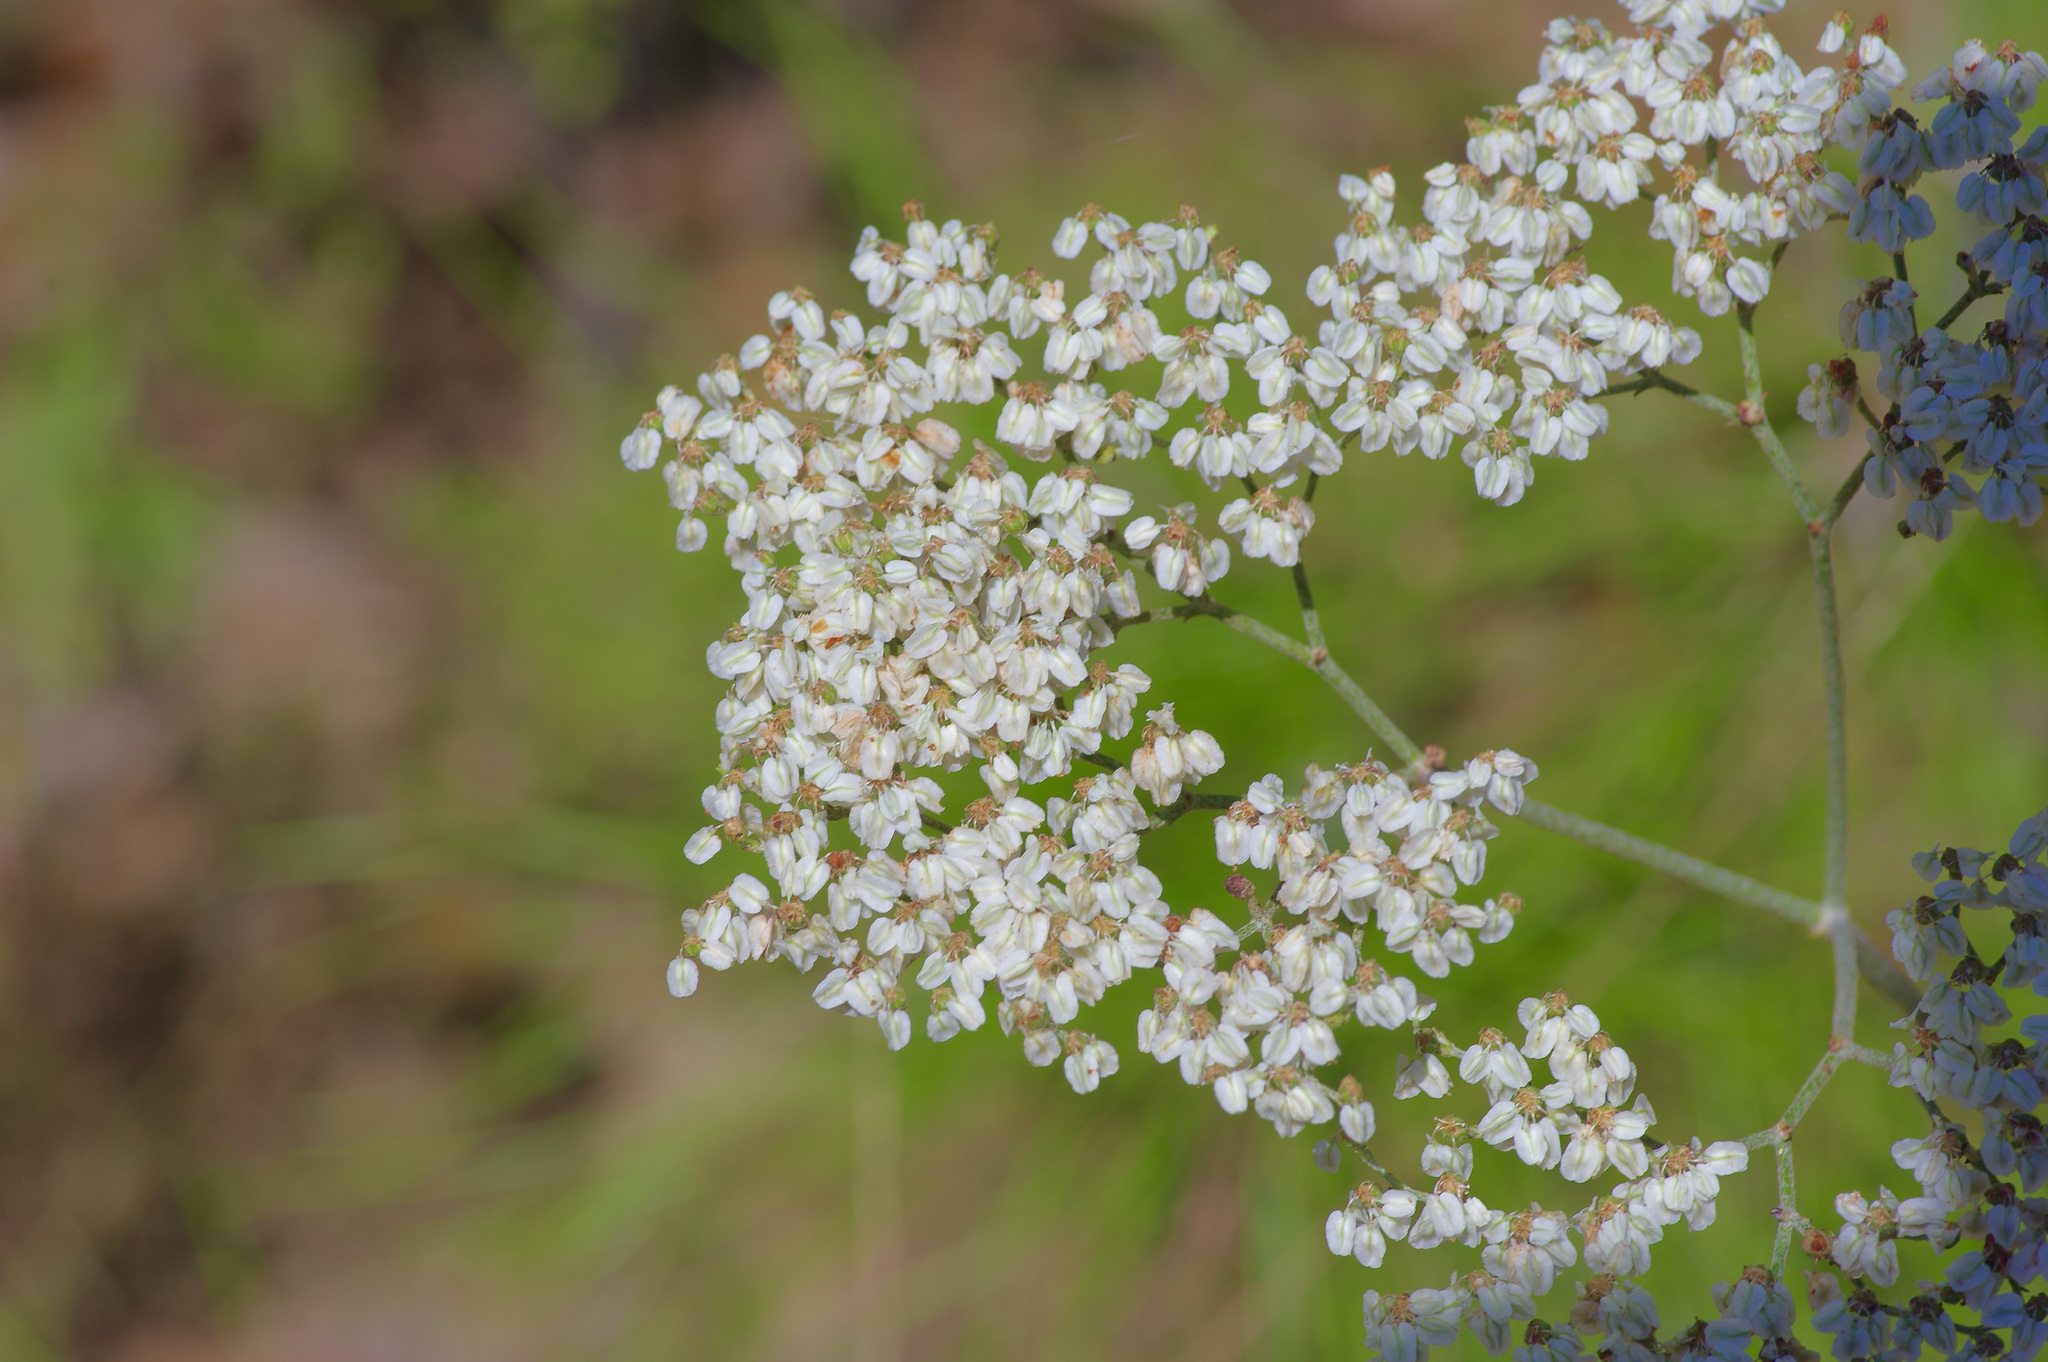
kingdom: Plantae
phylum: Tracheophyta
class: Magnoliopsida
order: Caryophyllales
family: Polygonaceae
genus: Eriogonum
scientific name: Eriogonum multiflorum
